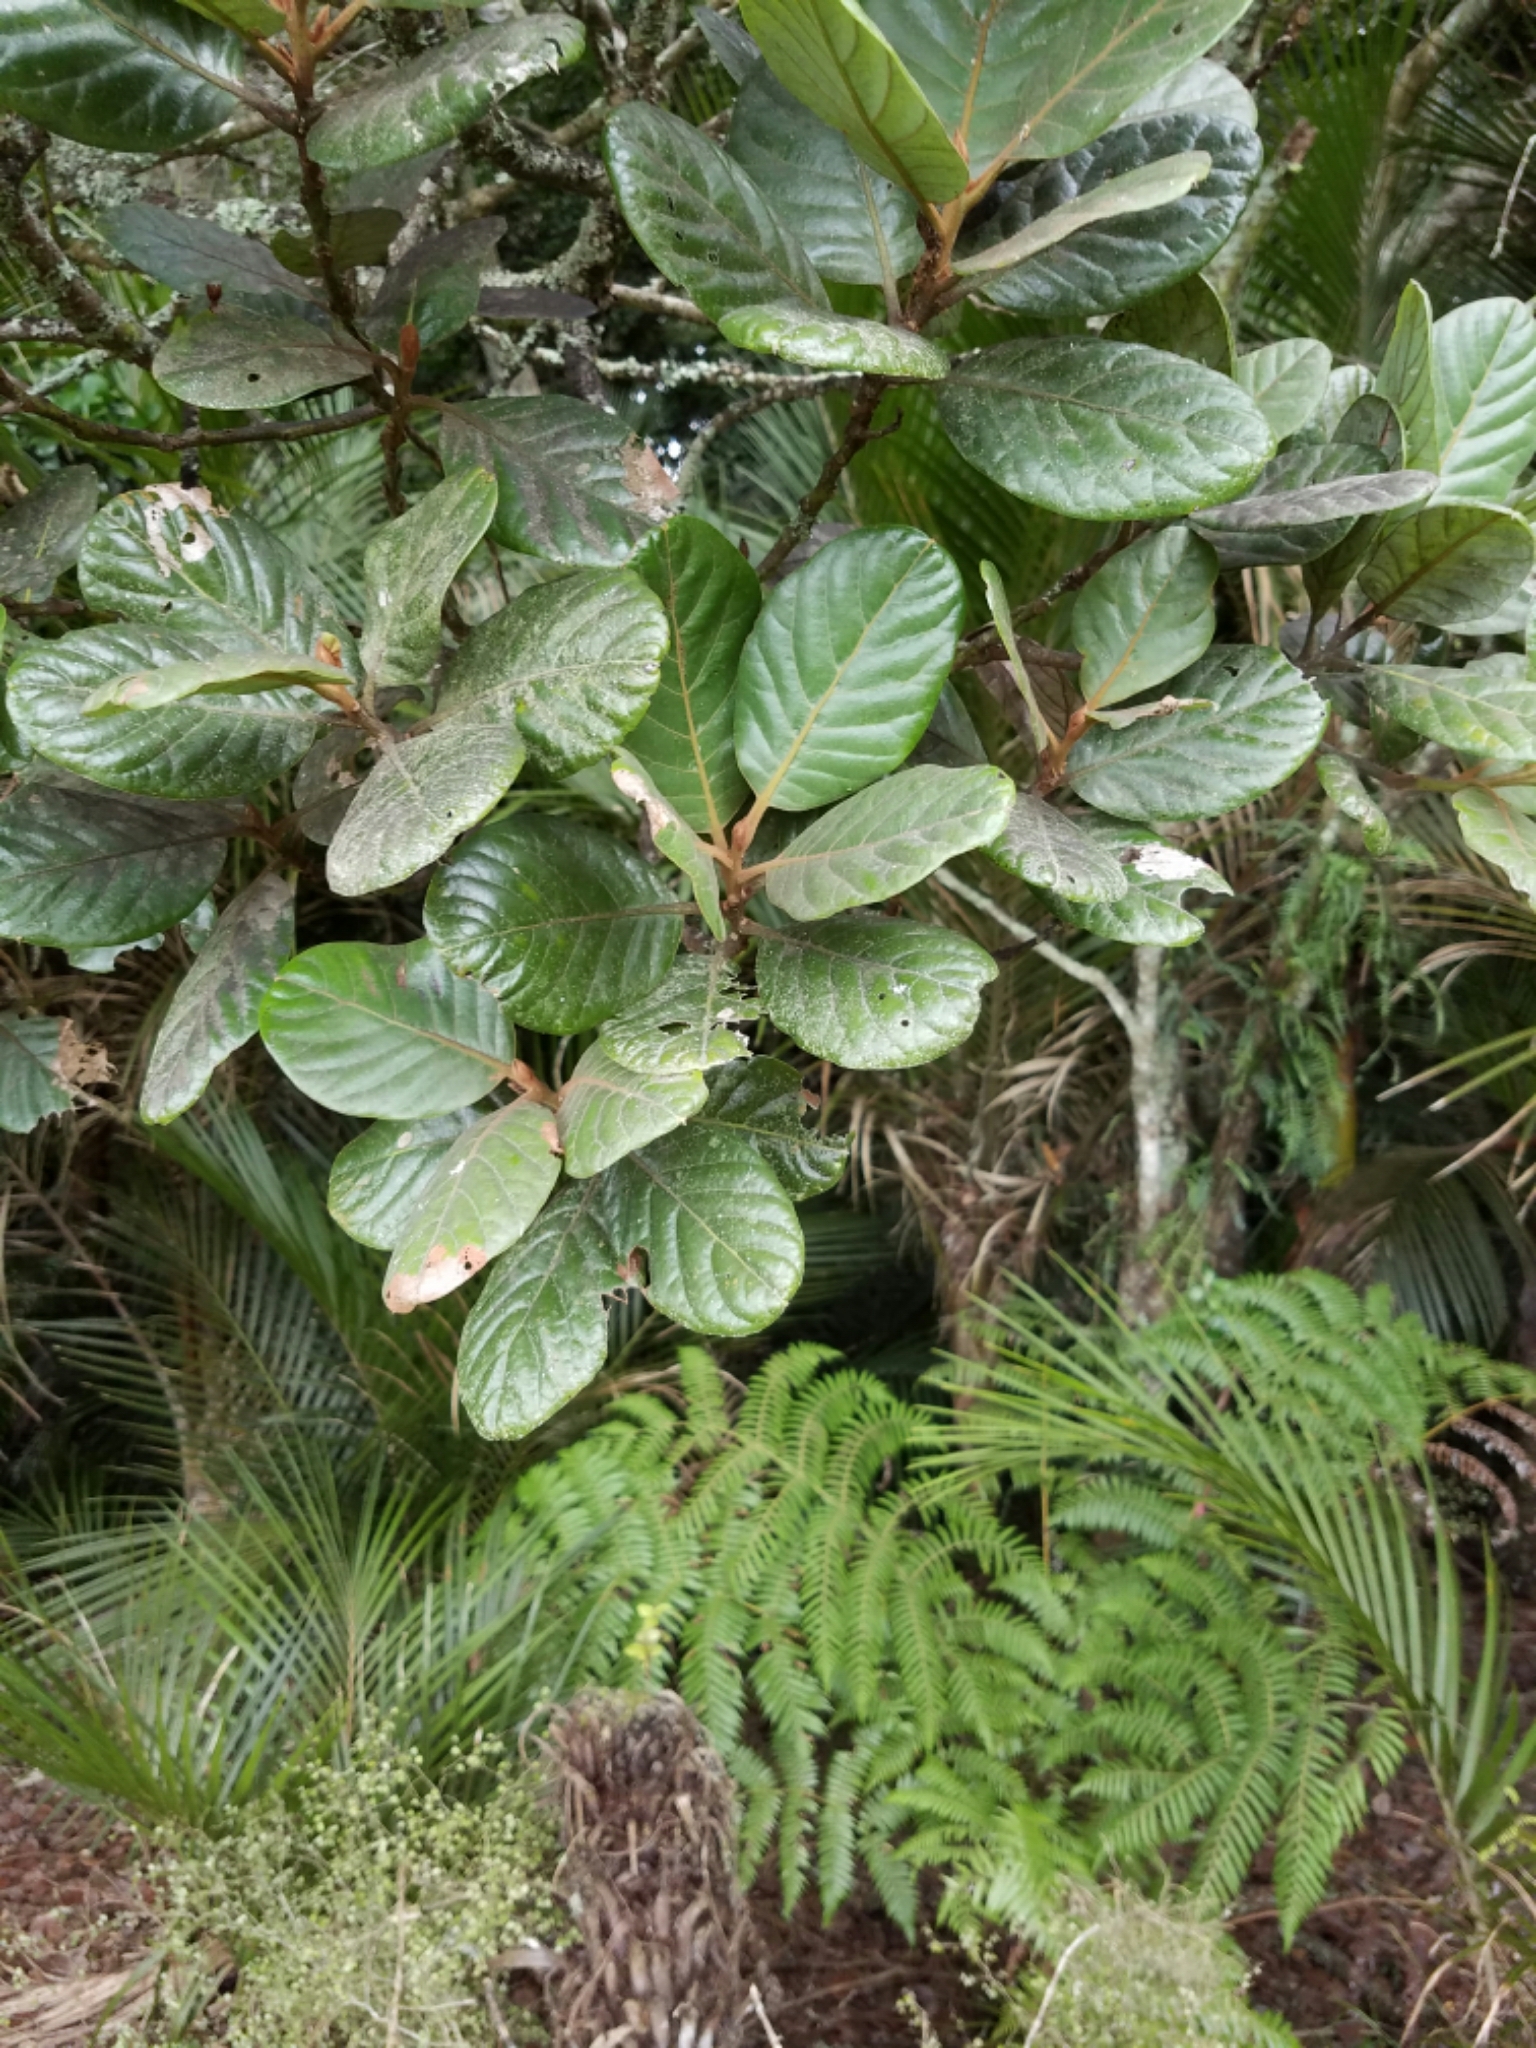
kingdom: Plantae
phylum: Tracheophyta
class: Magnoliopsida
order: Laurales
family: Lauraceae
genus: Beilschmiedia
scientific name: Beilschmiedia tarairi
